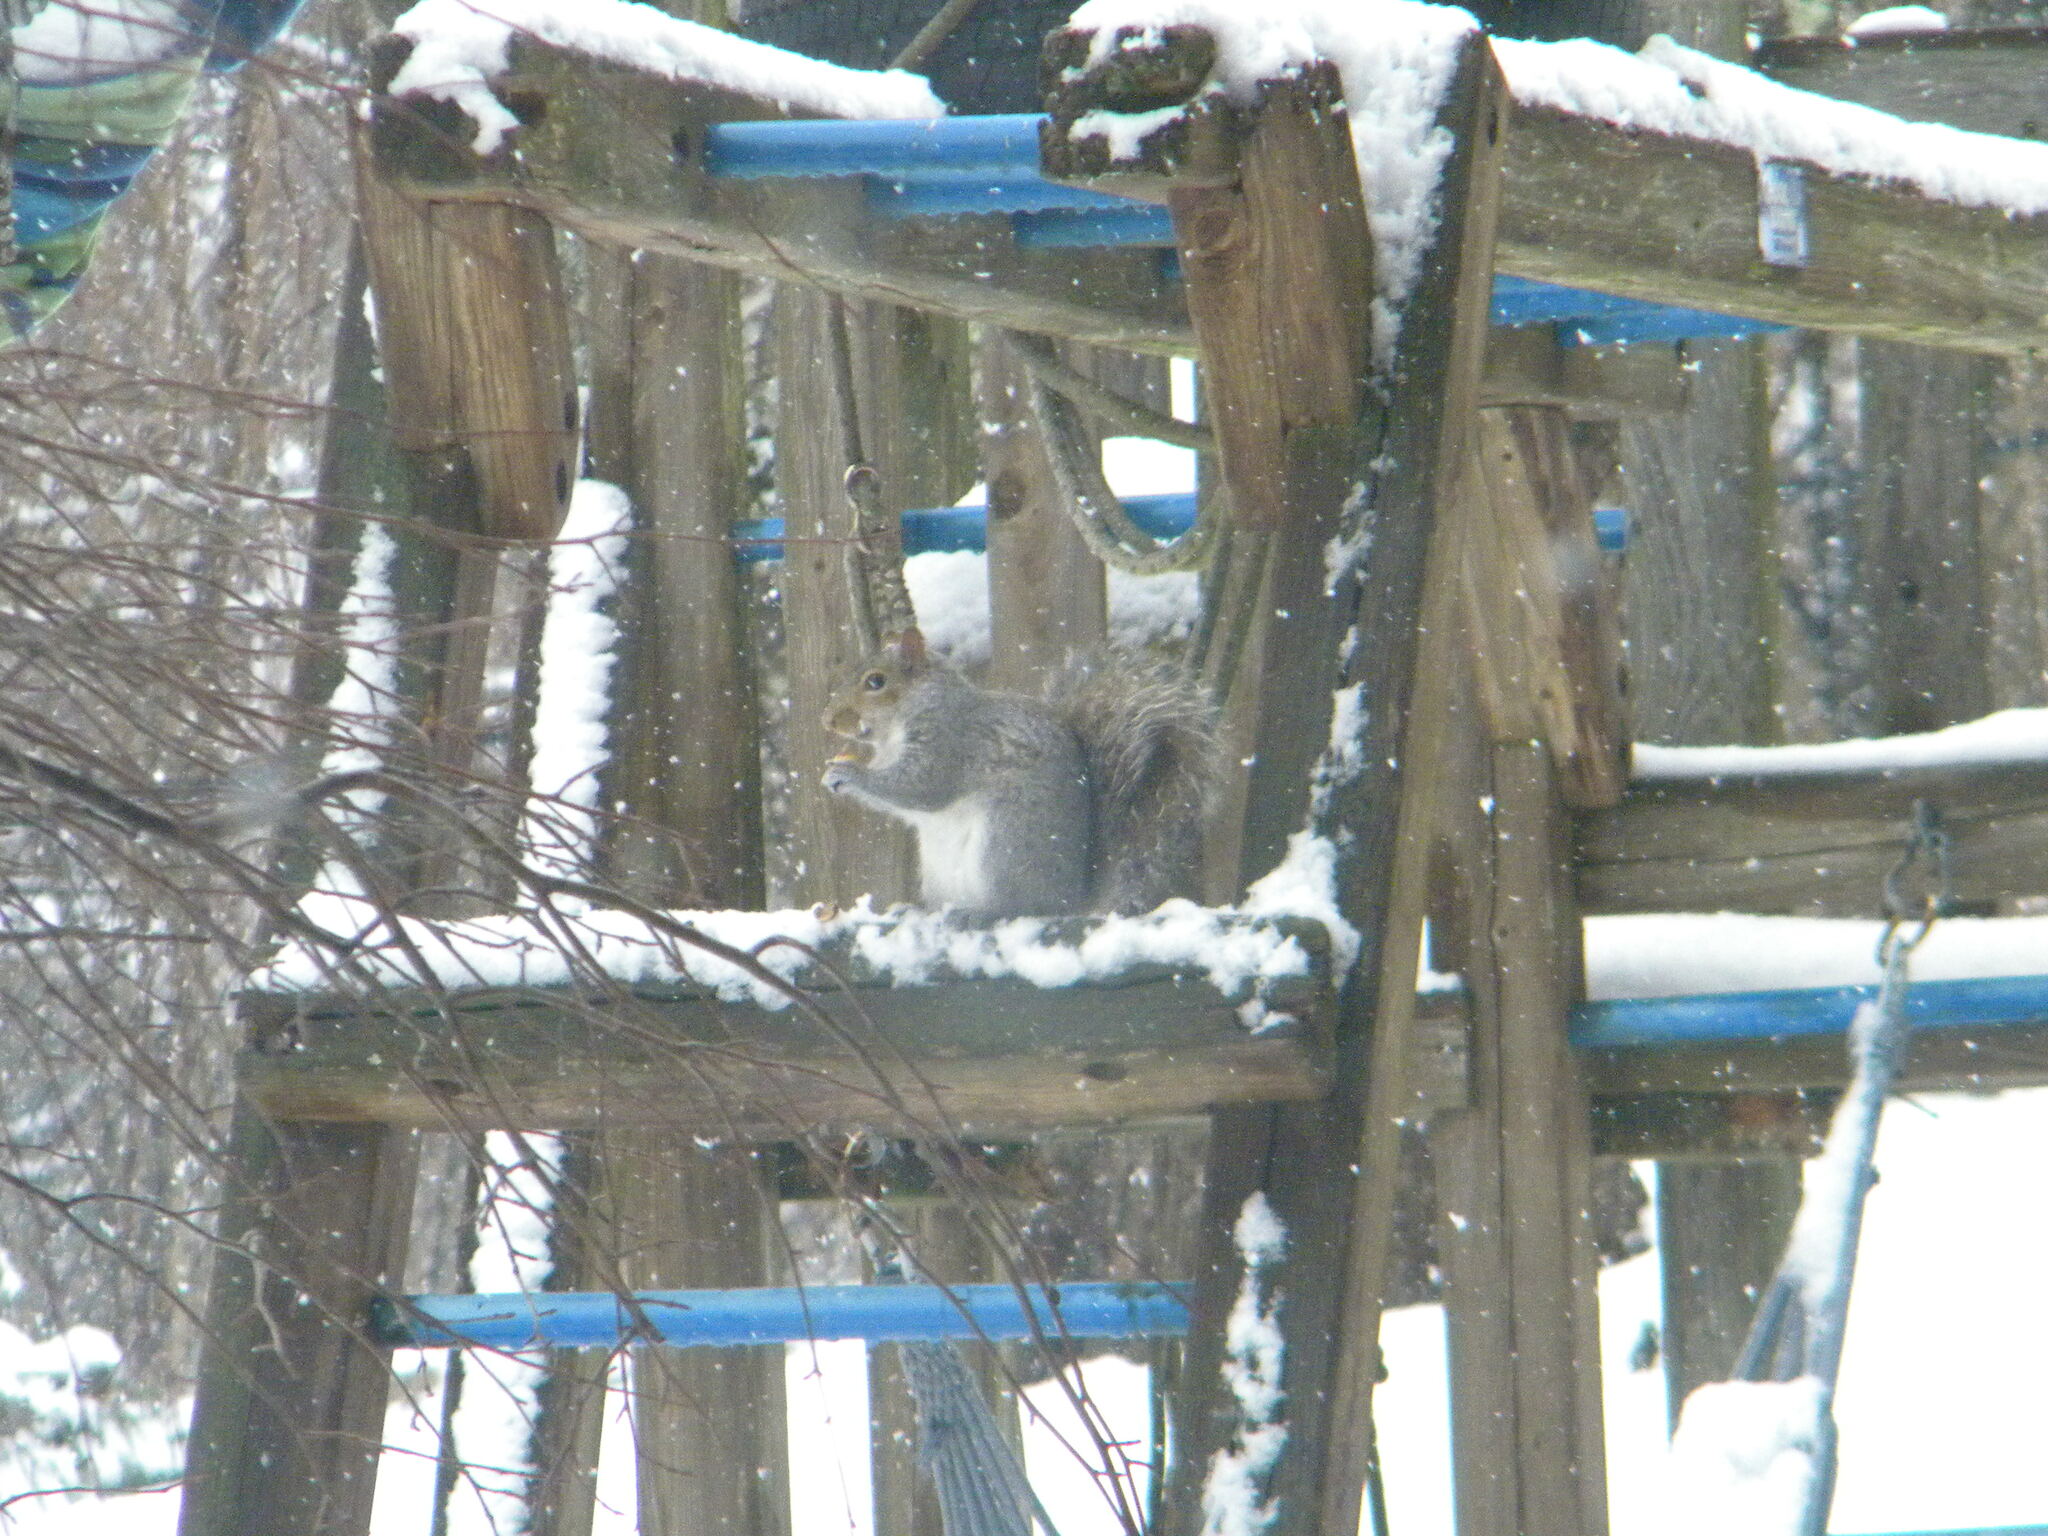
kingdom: Animalia
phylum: Chordata
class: Mammalia
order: Rodentia
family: Sciuridae
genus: Sciurus
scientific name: Sciurus carolinensis
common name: Eastern gray squirrel
